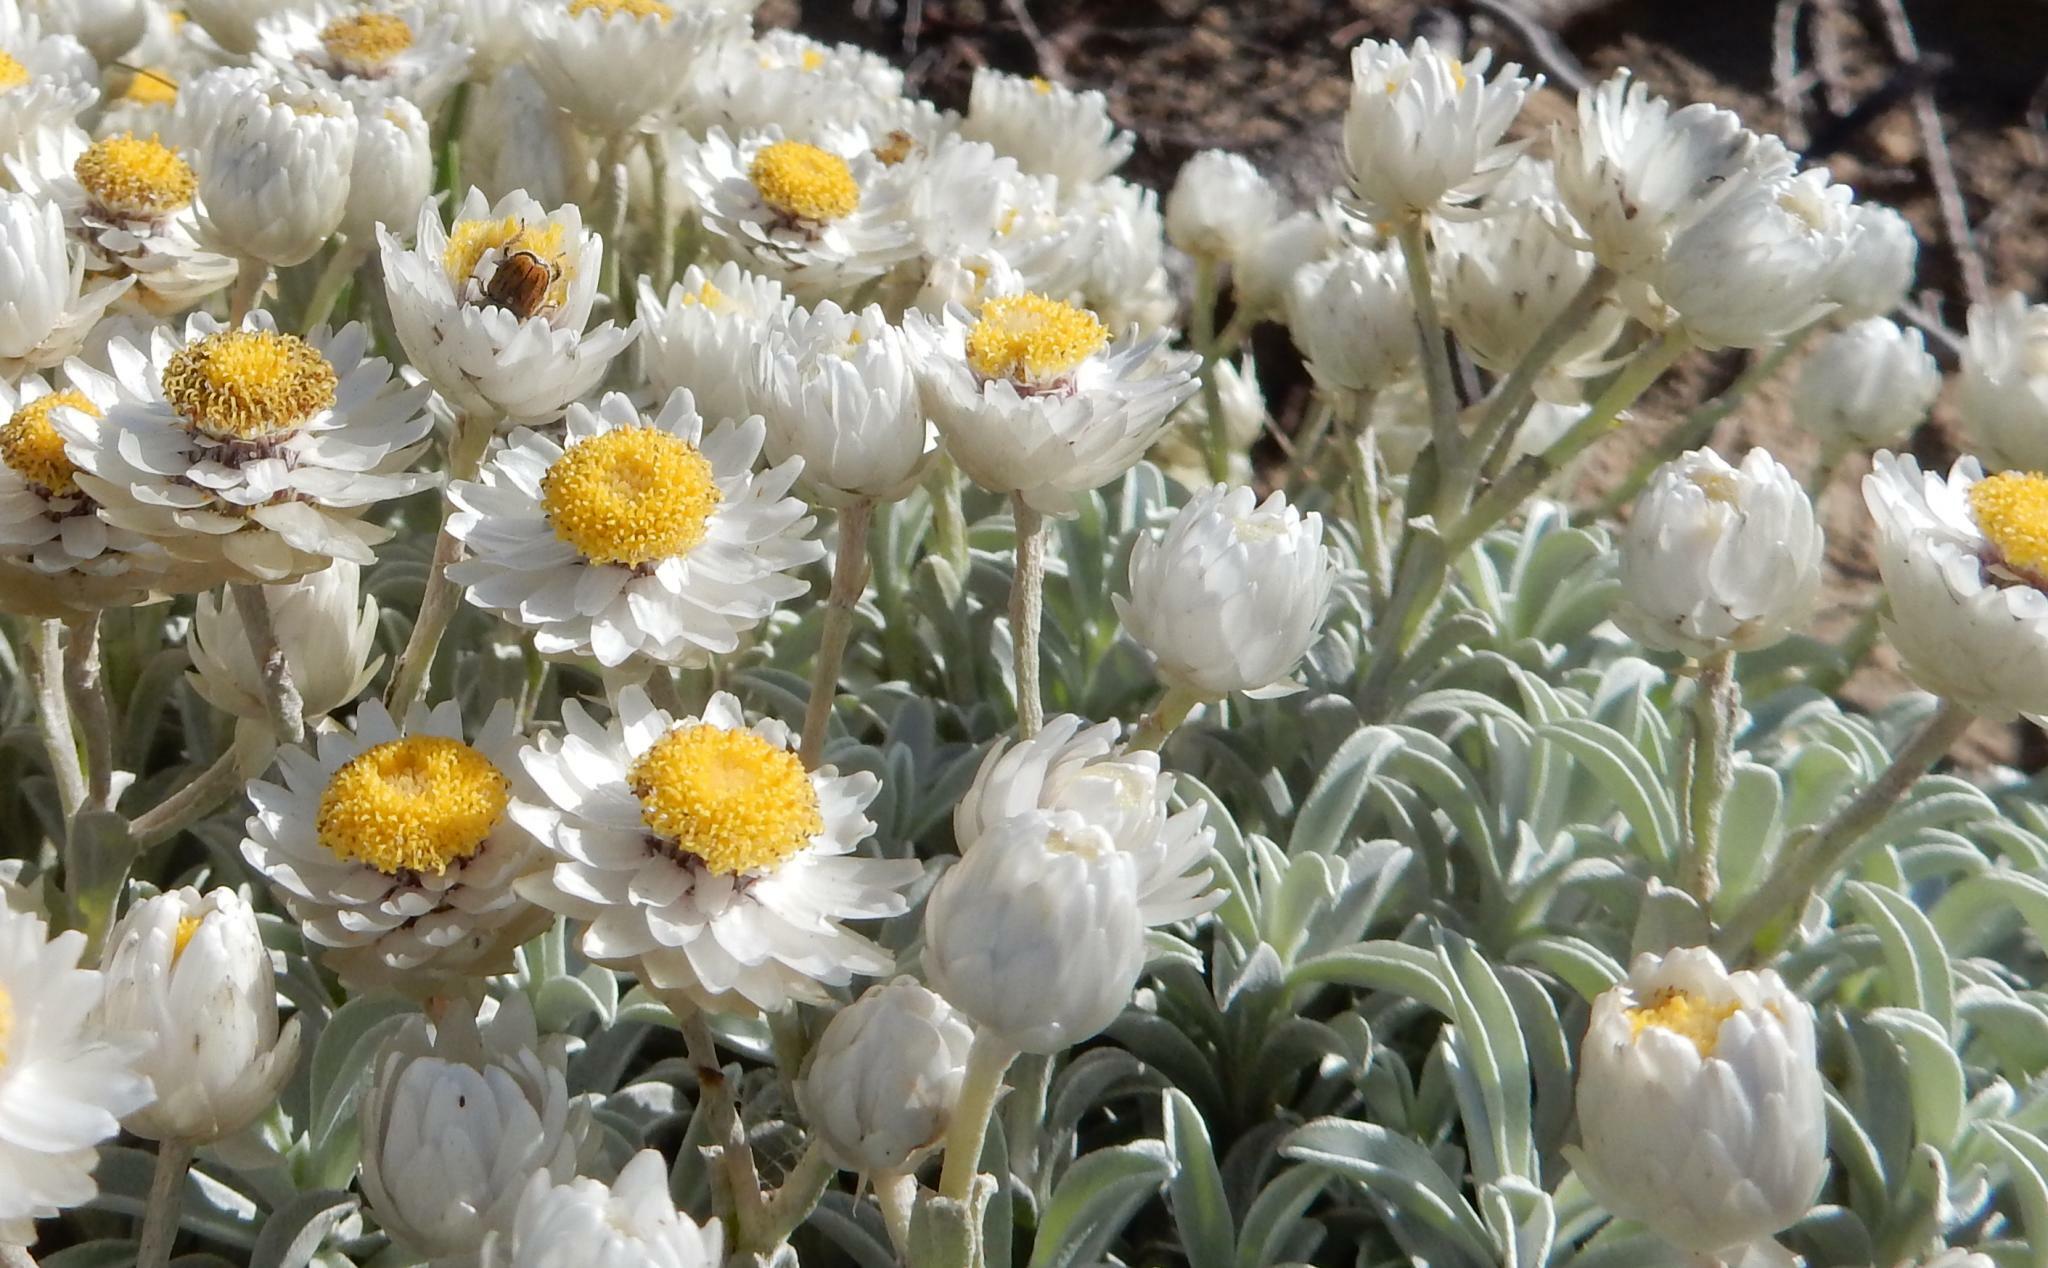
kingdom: Plantae
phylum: Tracheophyta
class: Magnoliopsida
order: Asterales
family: Asteraceae
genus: Achyranthemum
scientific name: Achyranthemum argenteum
